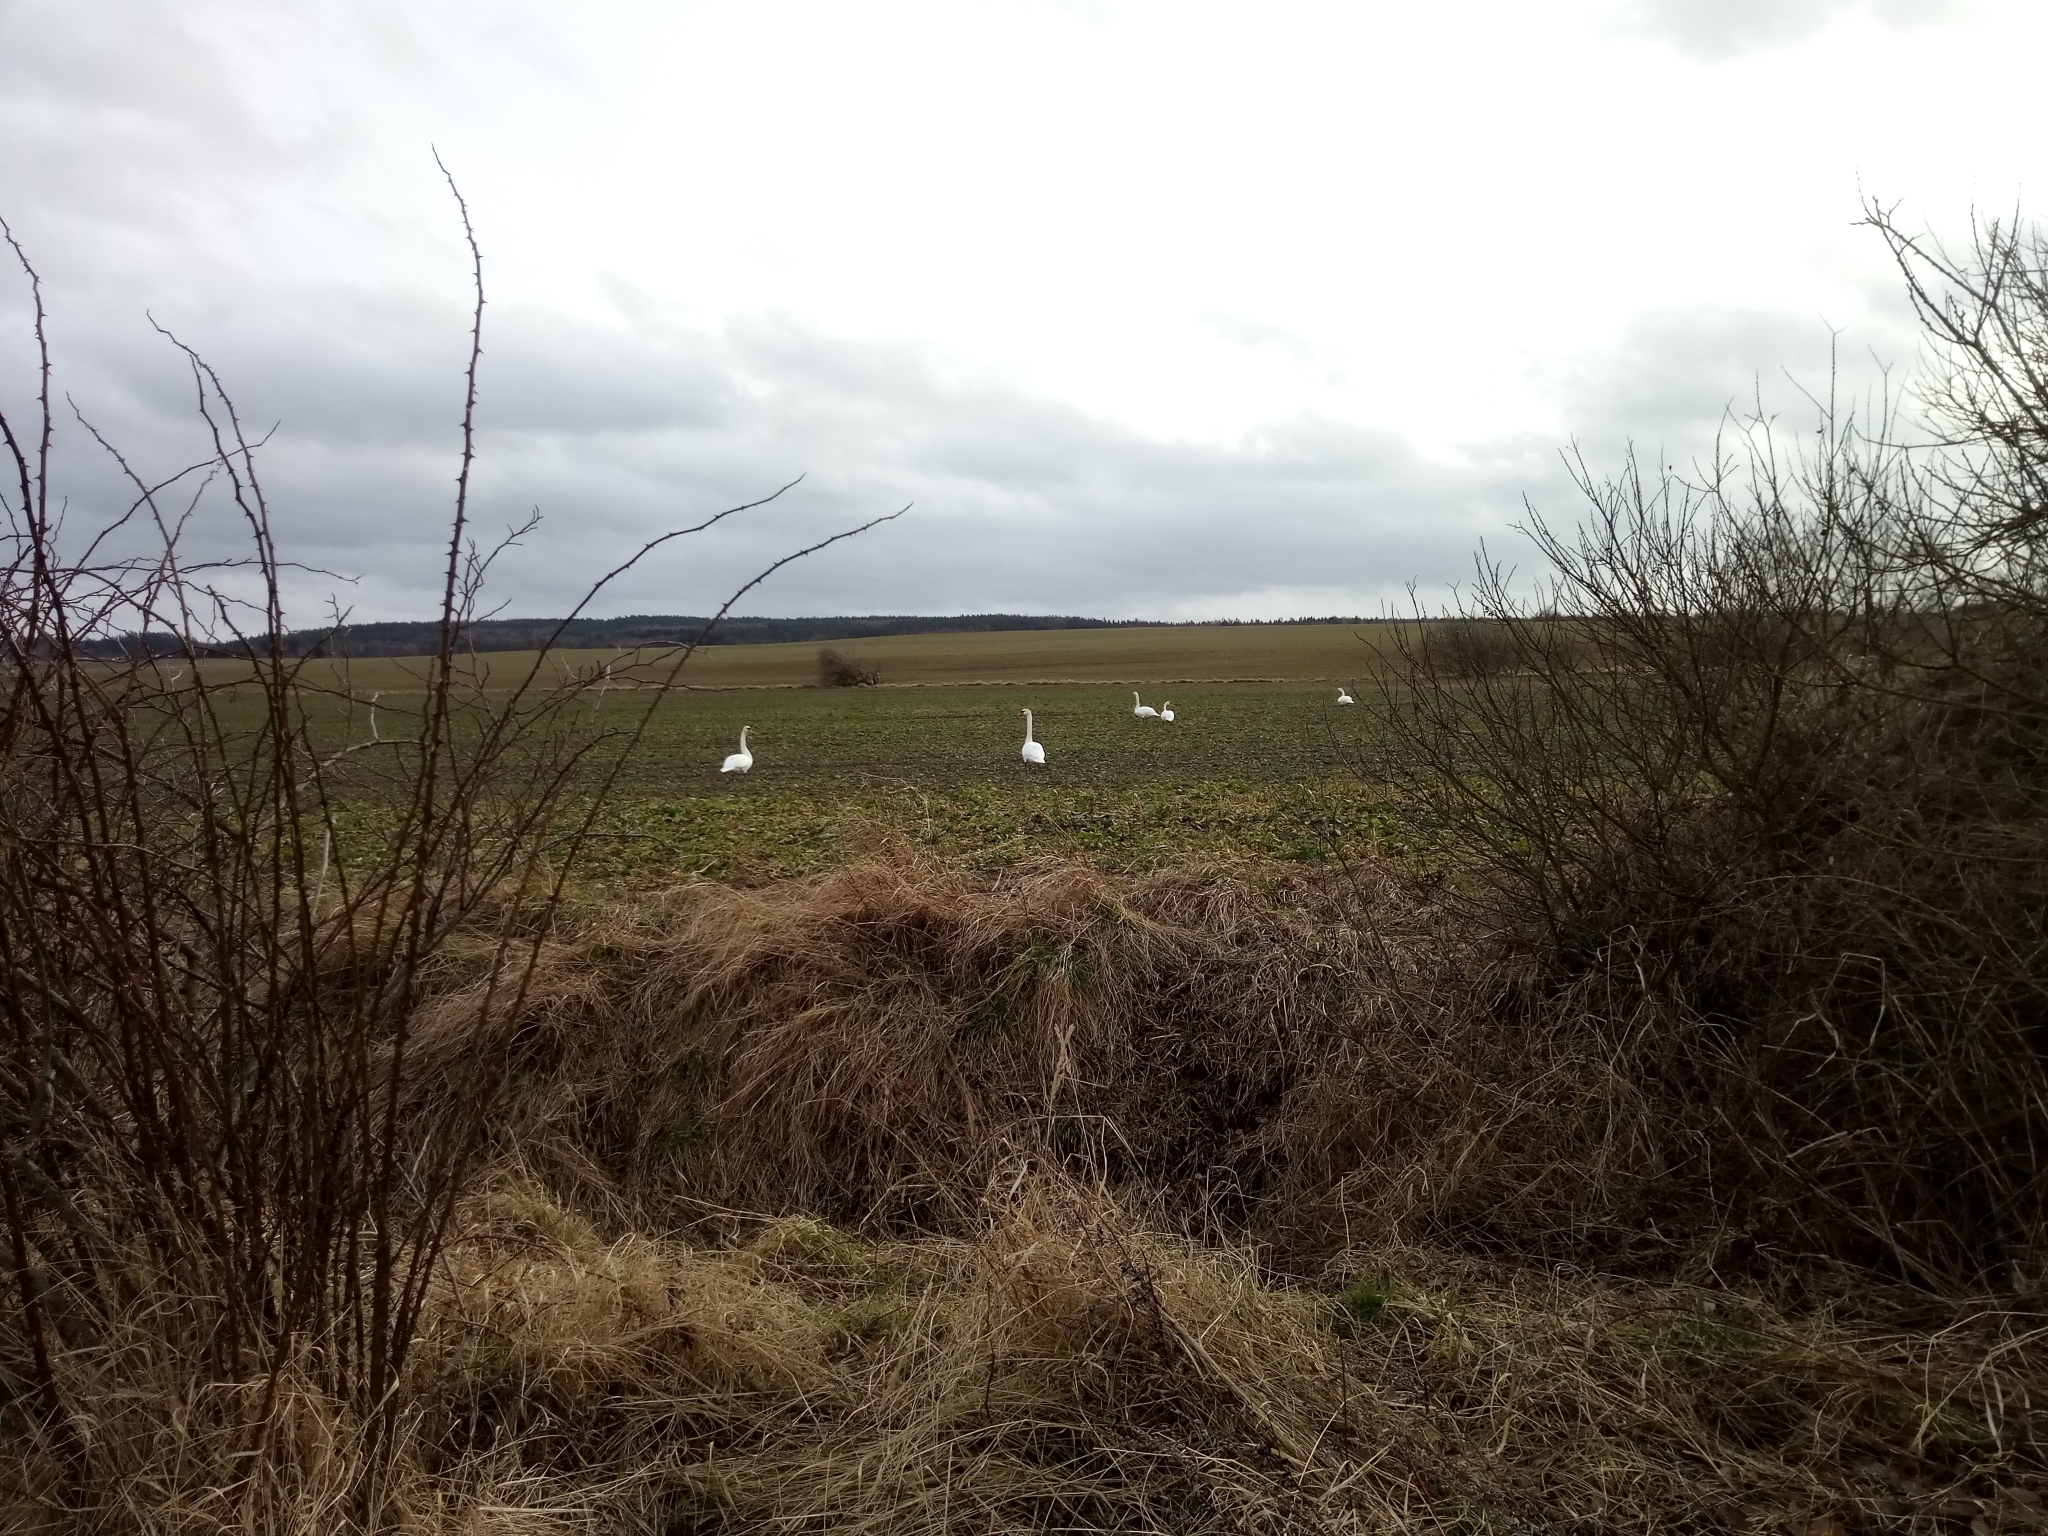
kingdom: Animalia
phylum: Chordata
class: Aves
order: Anseriformes
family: Anatidae
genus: Cygnus
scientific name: Cygnus olor
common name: Mute swan
